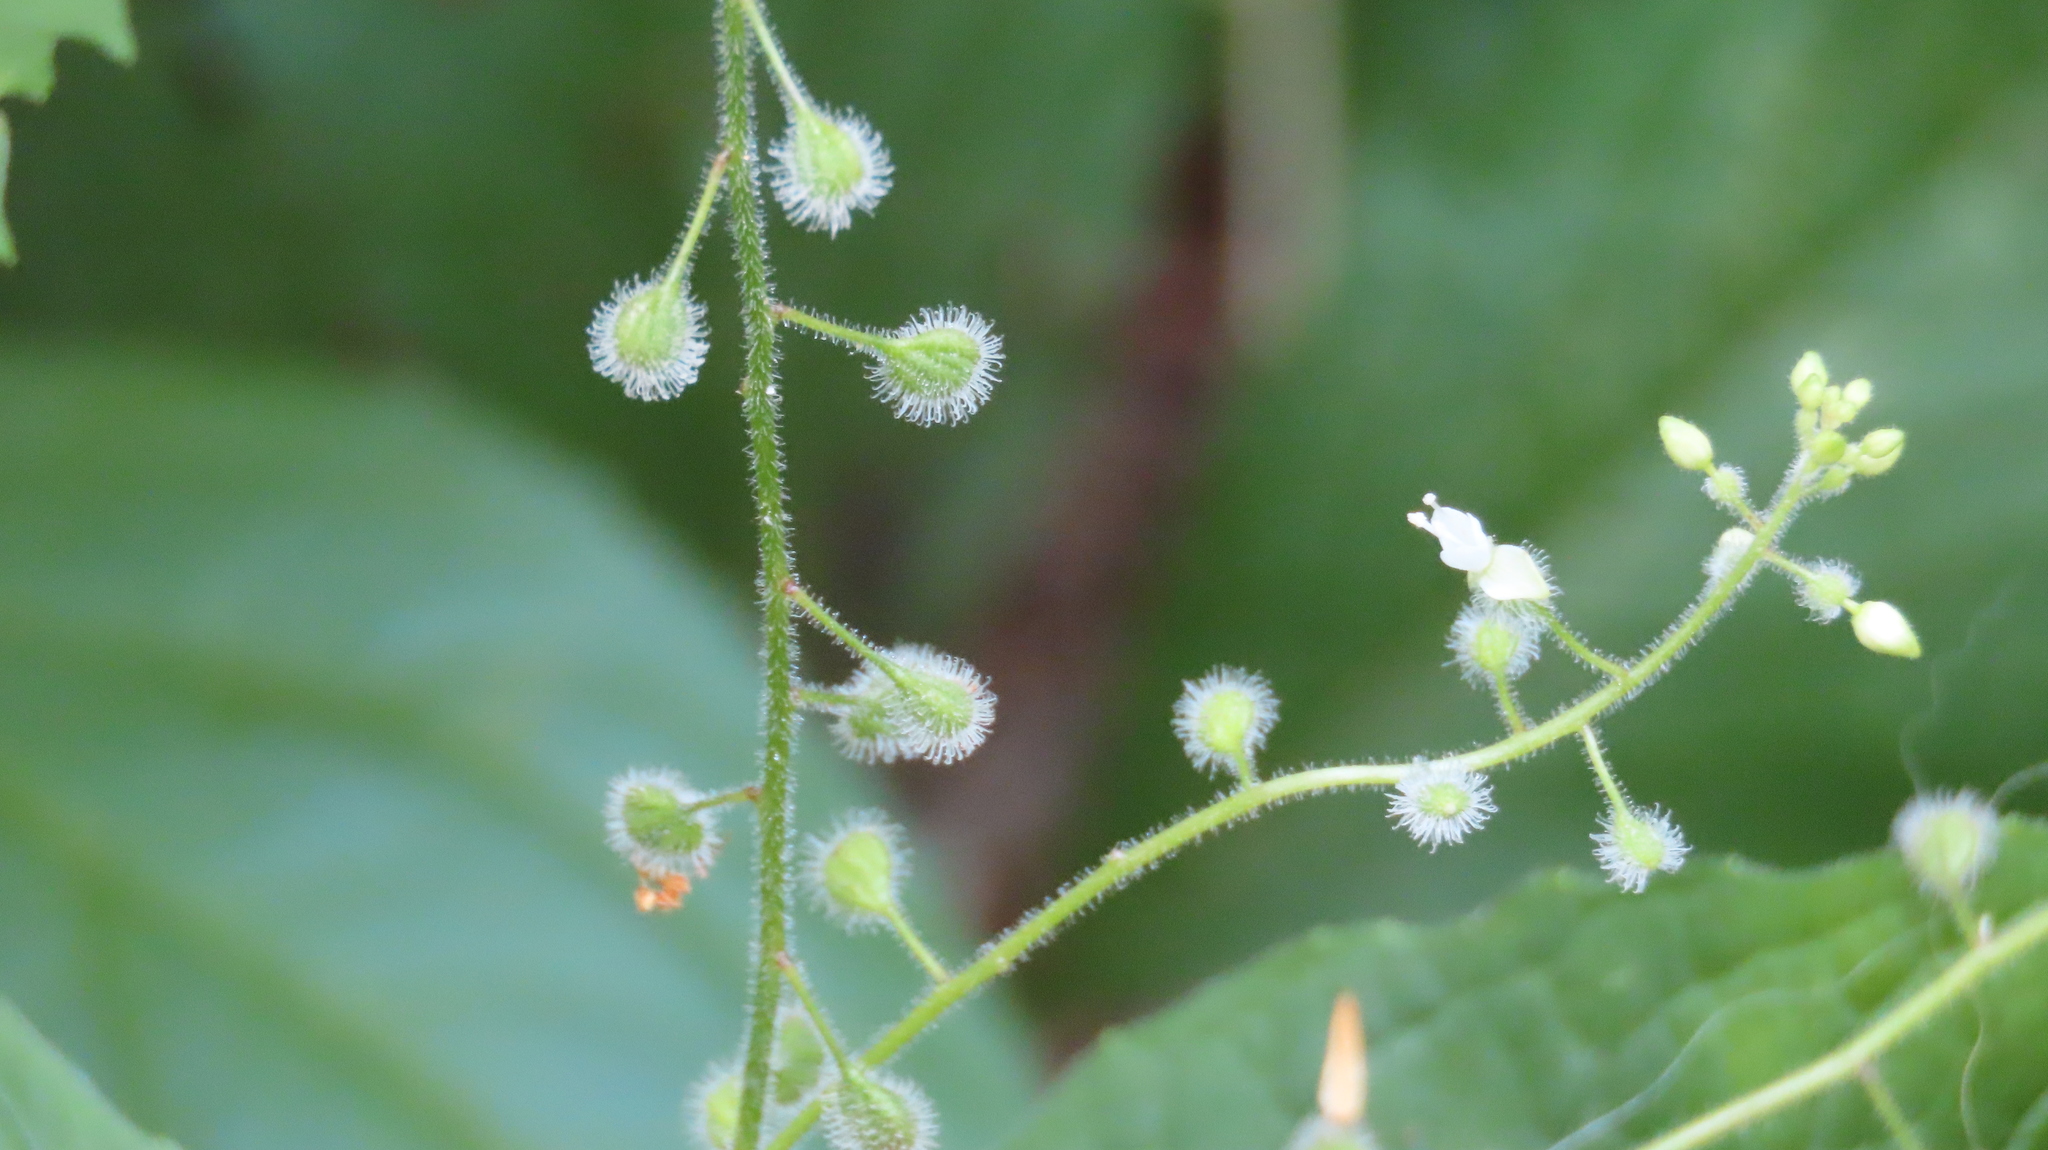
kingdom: Plantae
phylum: Tracheophyta
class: Magnoliopsida
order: Myrtales
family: Onagraceae
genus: Circaea
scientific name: Circaea canadensis
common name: Broad-leaved enchanter's nightshade
